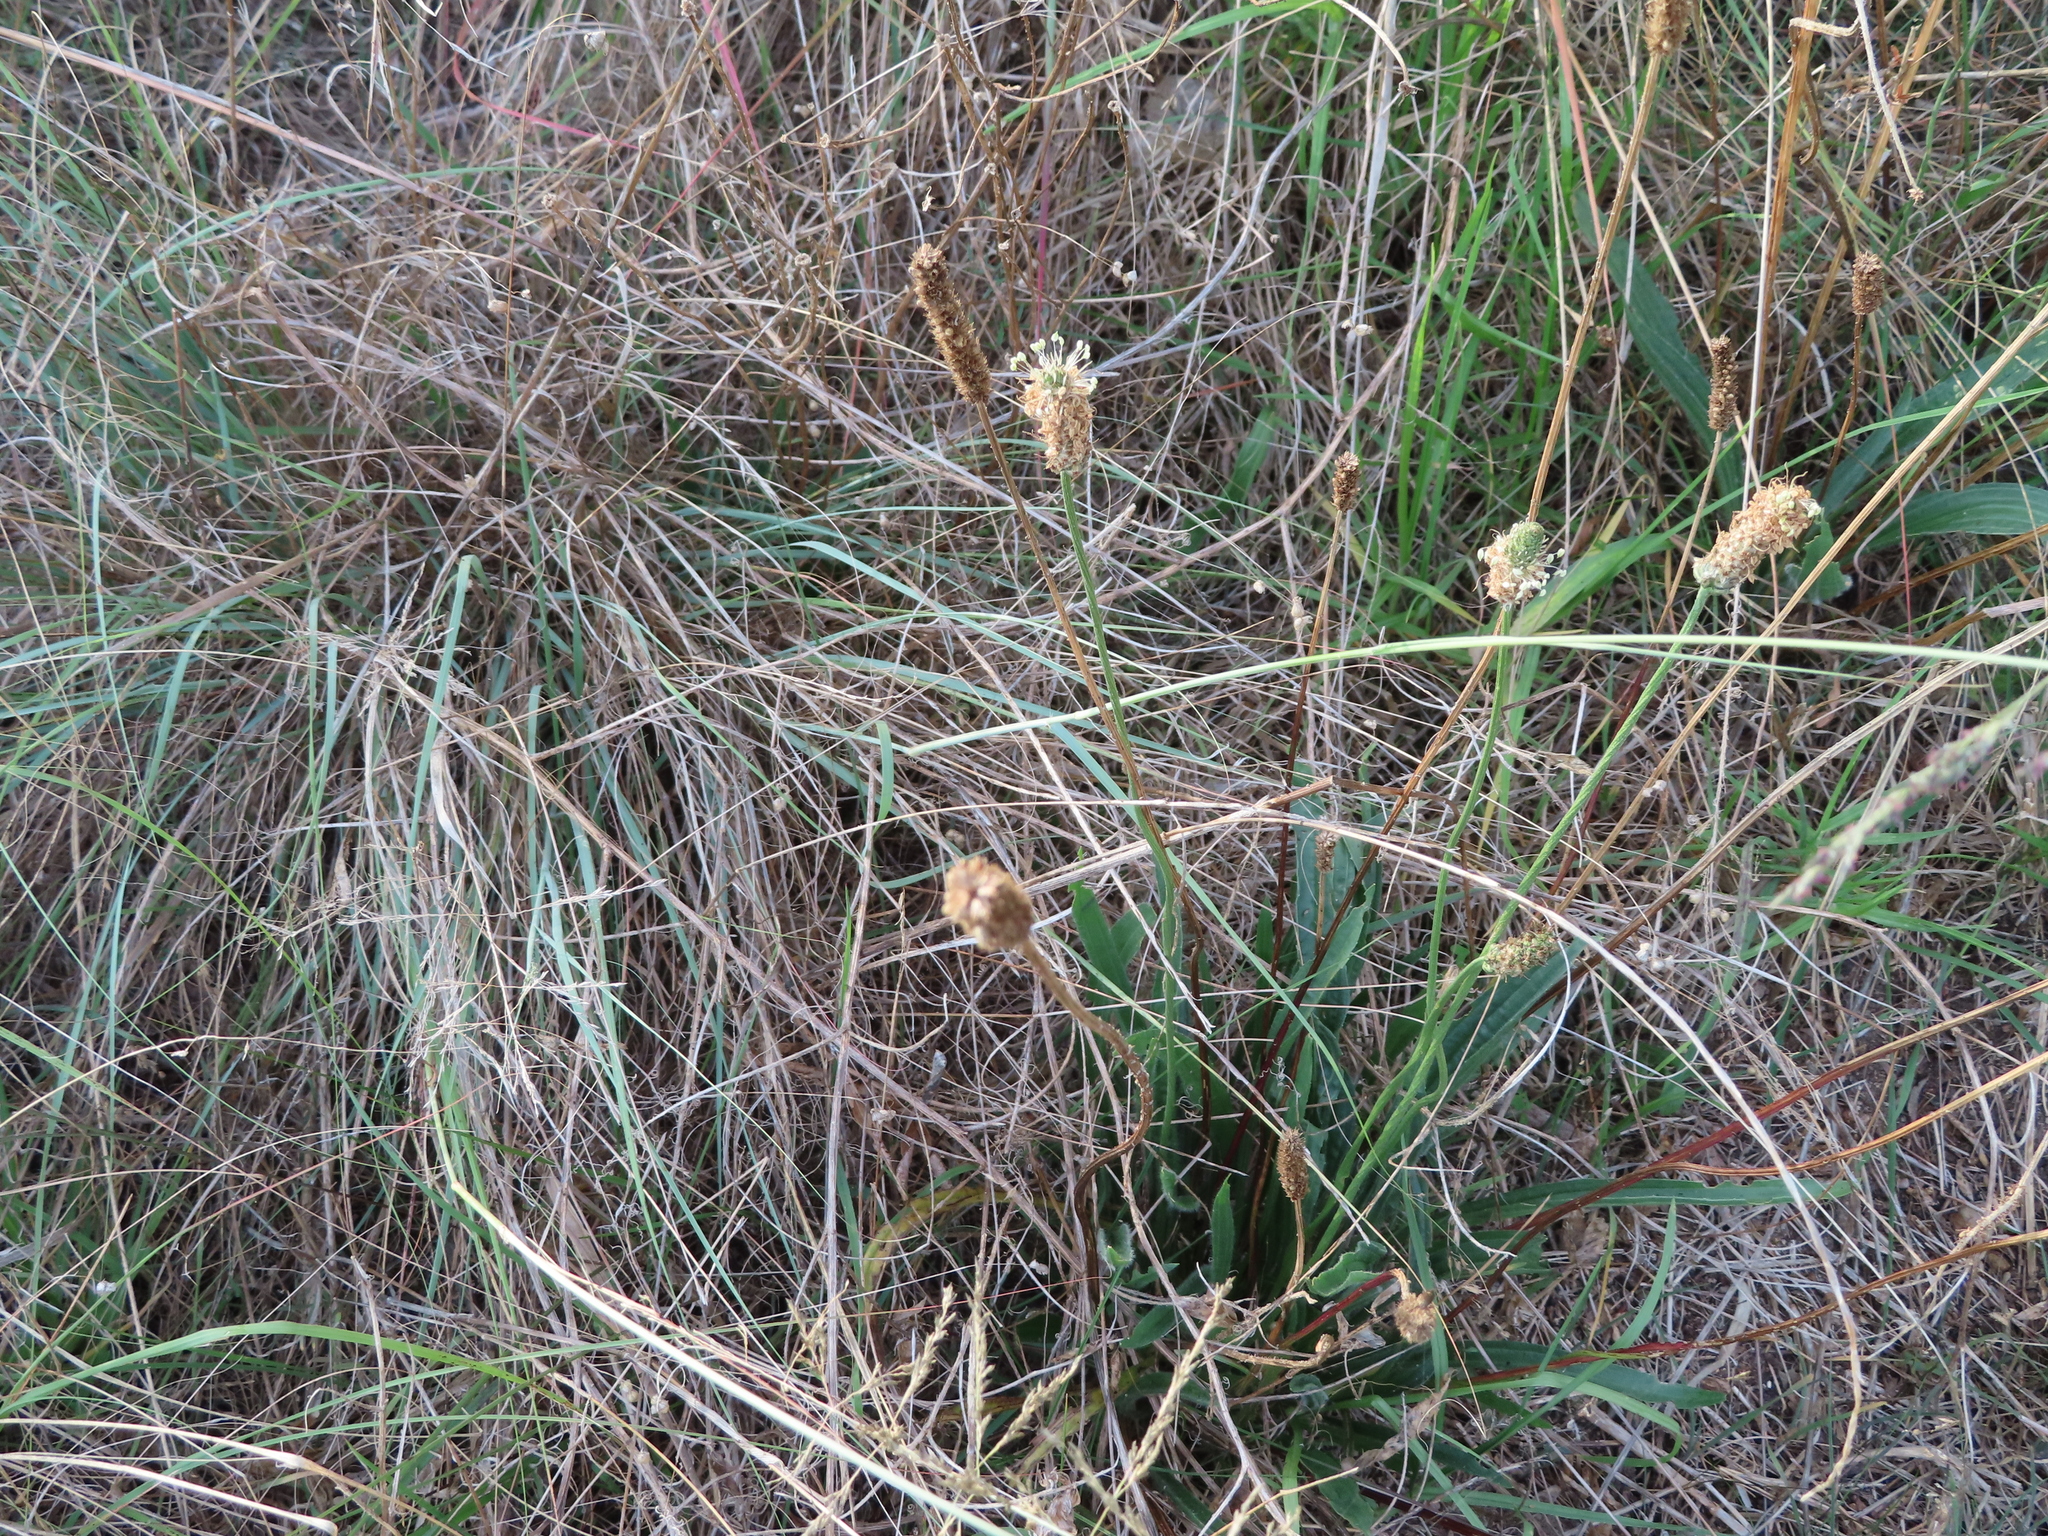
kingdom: Plantae
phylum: Tracheophyta
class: Magnoliopsida
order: Lamiales
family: Plantaginaceae
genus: Plantago
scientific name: Plantago lanceolata
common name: Ribwort plantain
